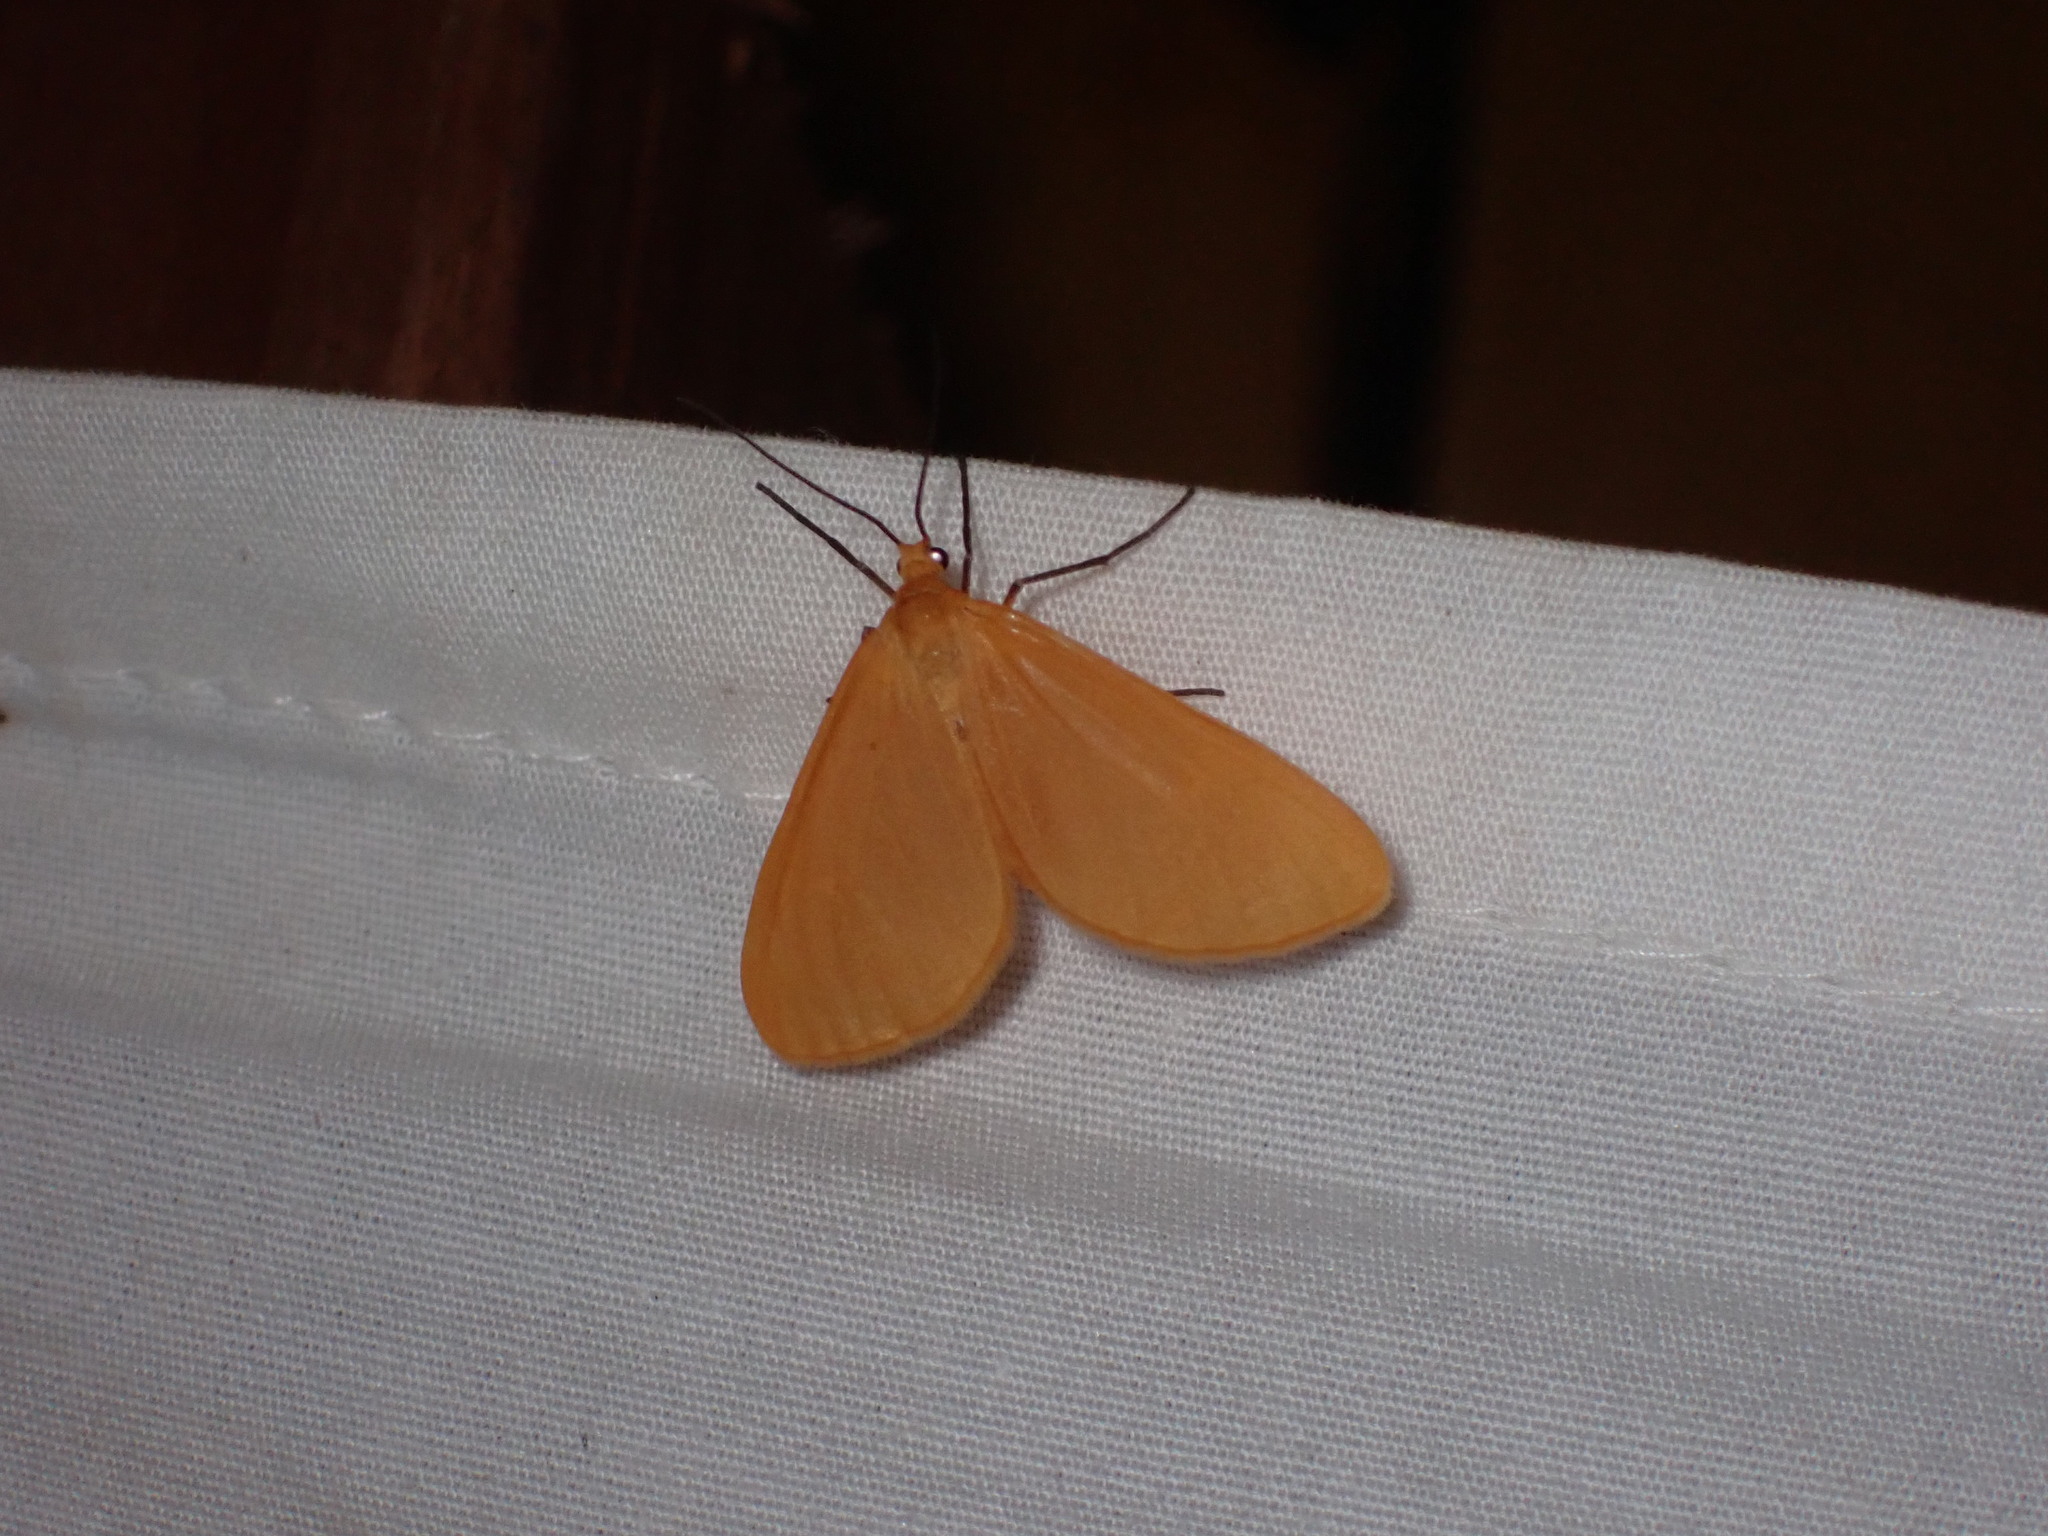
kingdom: Animalia
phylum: Arthropoda
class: Insecta
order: Lepidoptera
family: Geometridae
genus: Eubaphe
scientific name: Eubaphe unicolor
